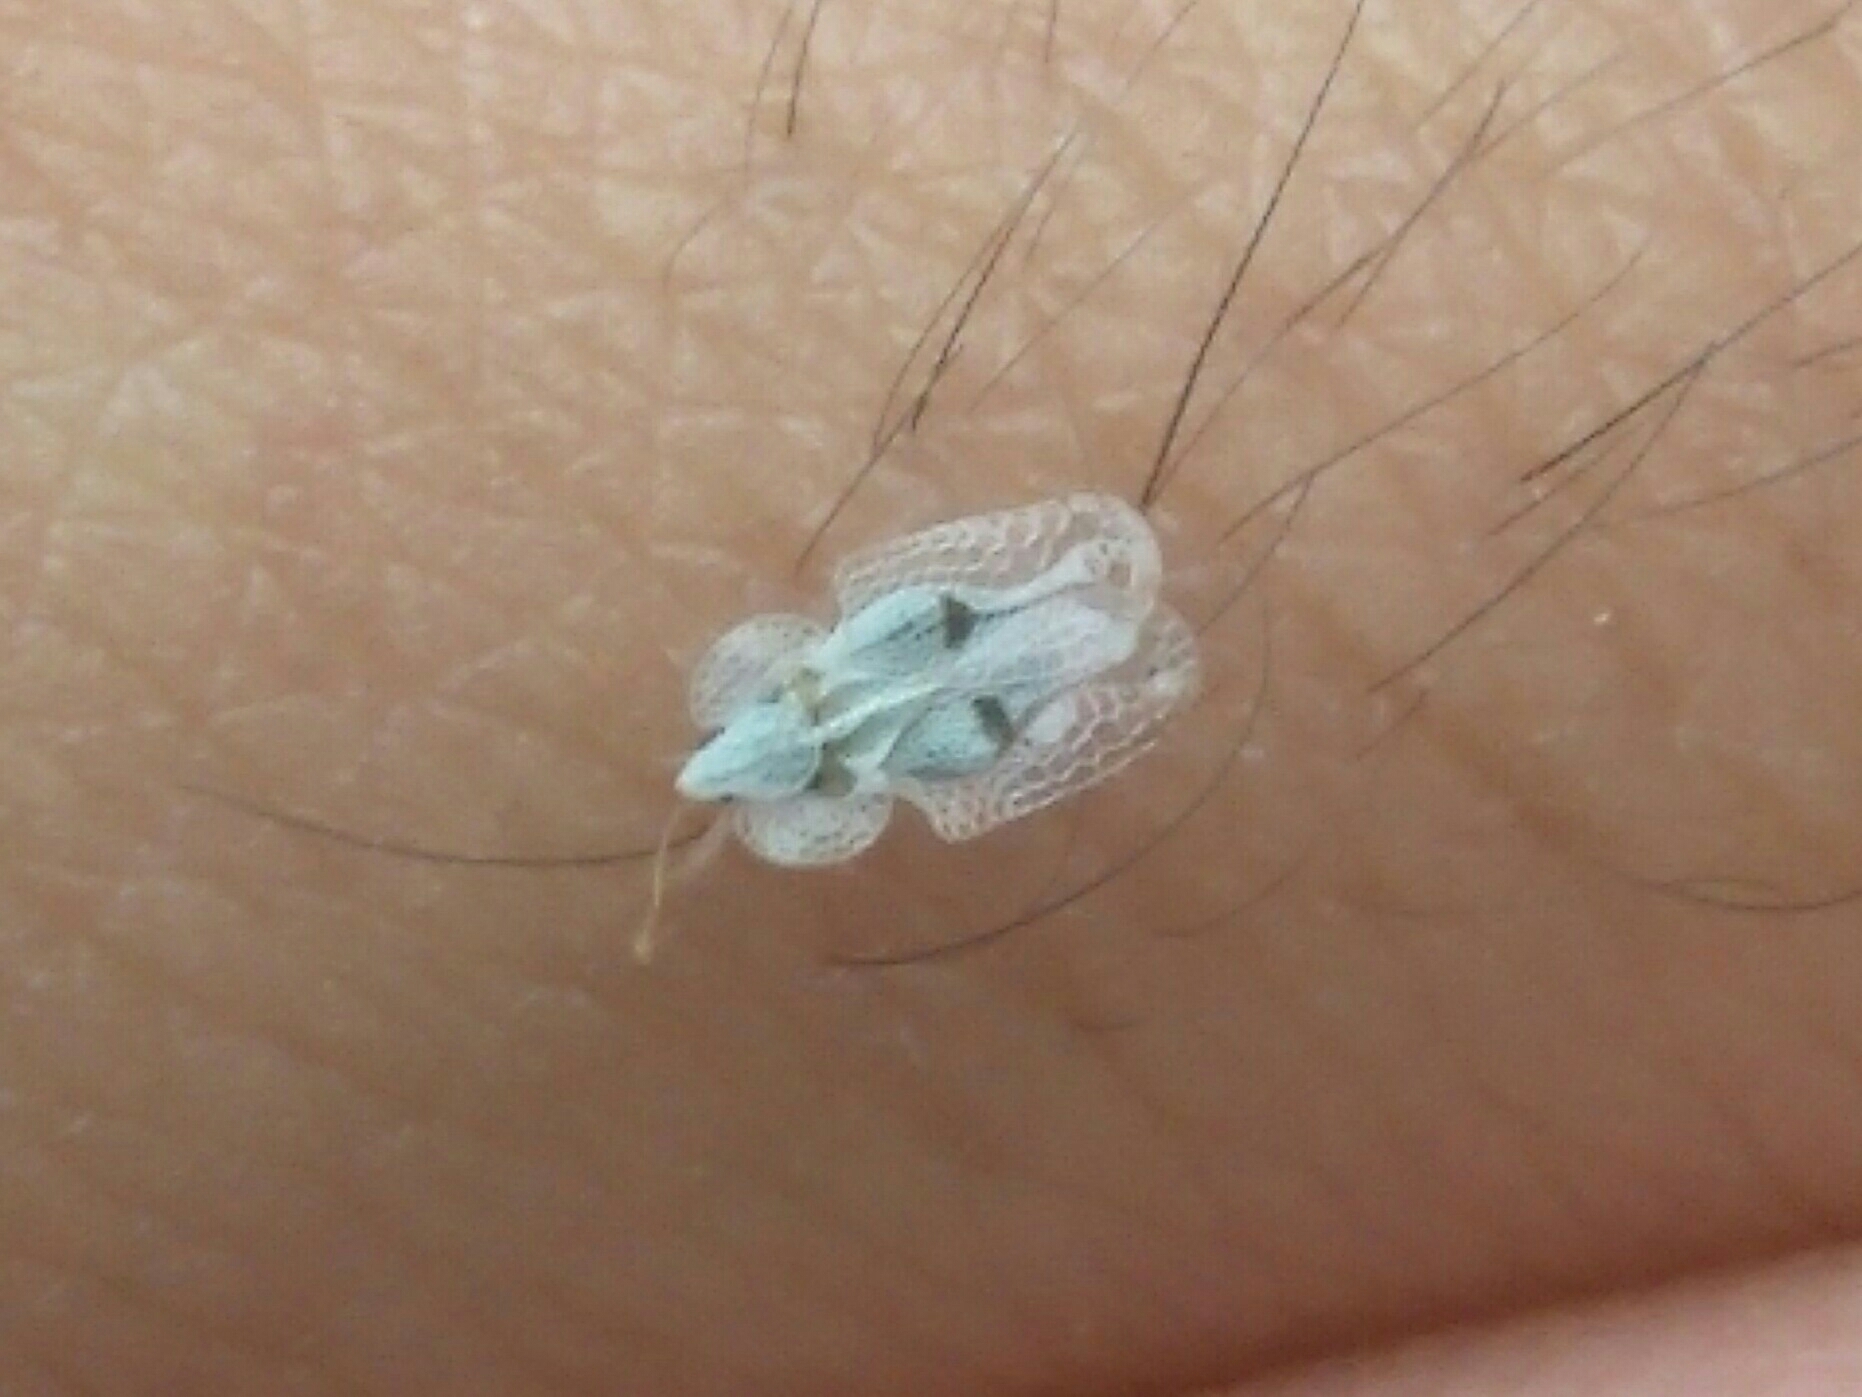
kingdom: Animalia
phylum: Arthropoda
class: Insecta
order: Hemiptera
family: Tingidae
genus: Corythucha
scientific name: Corythucha ciliata
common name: Sycamore lace bug
